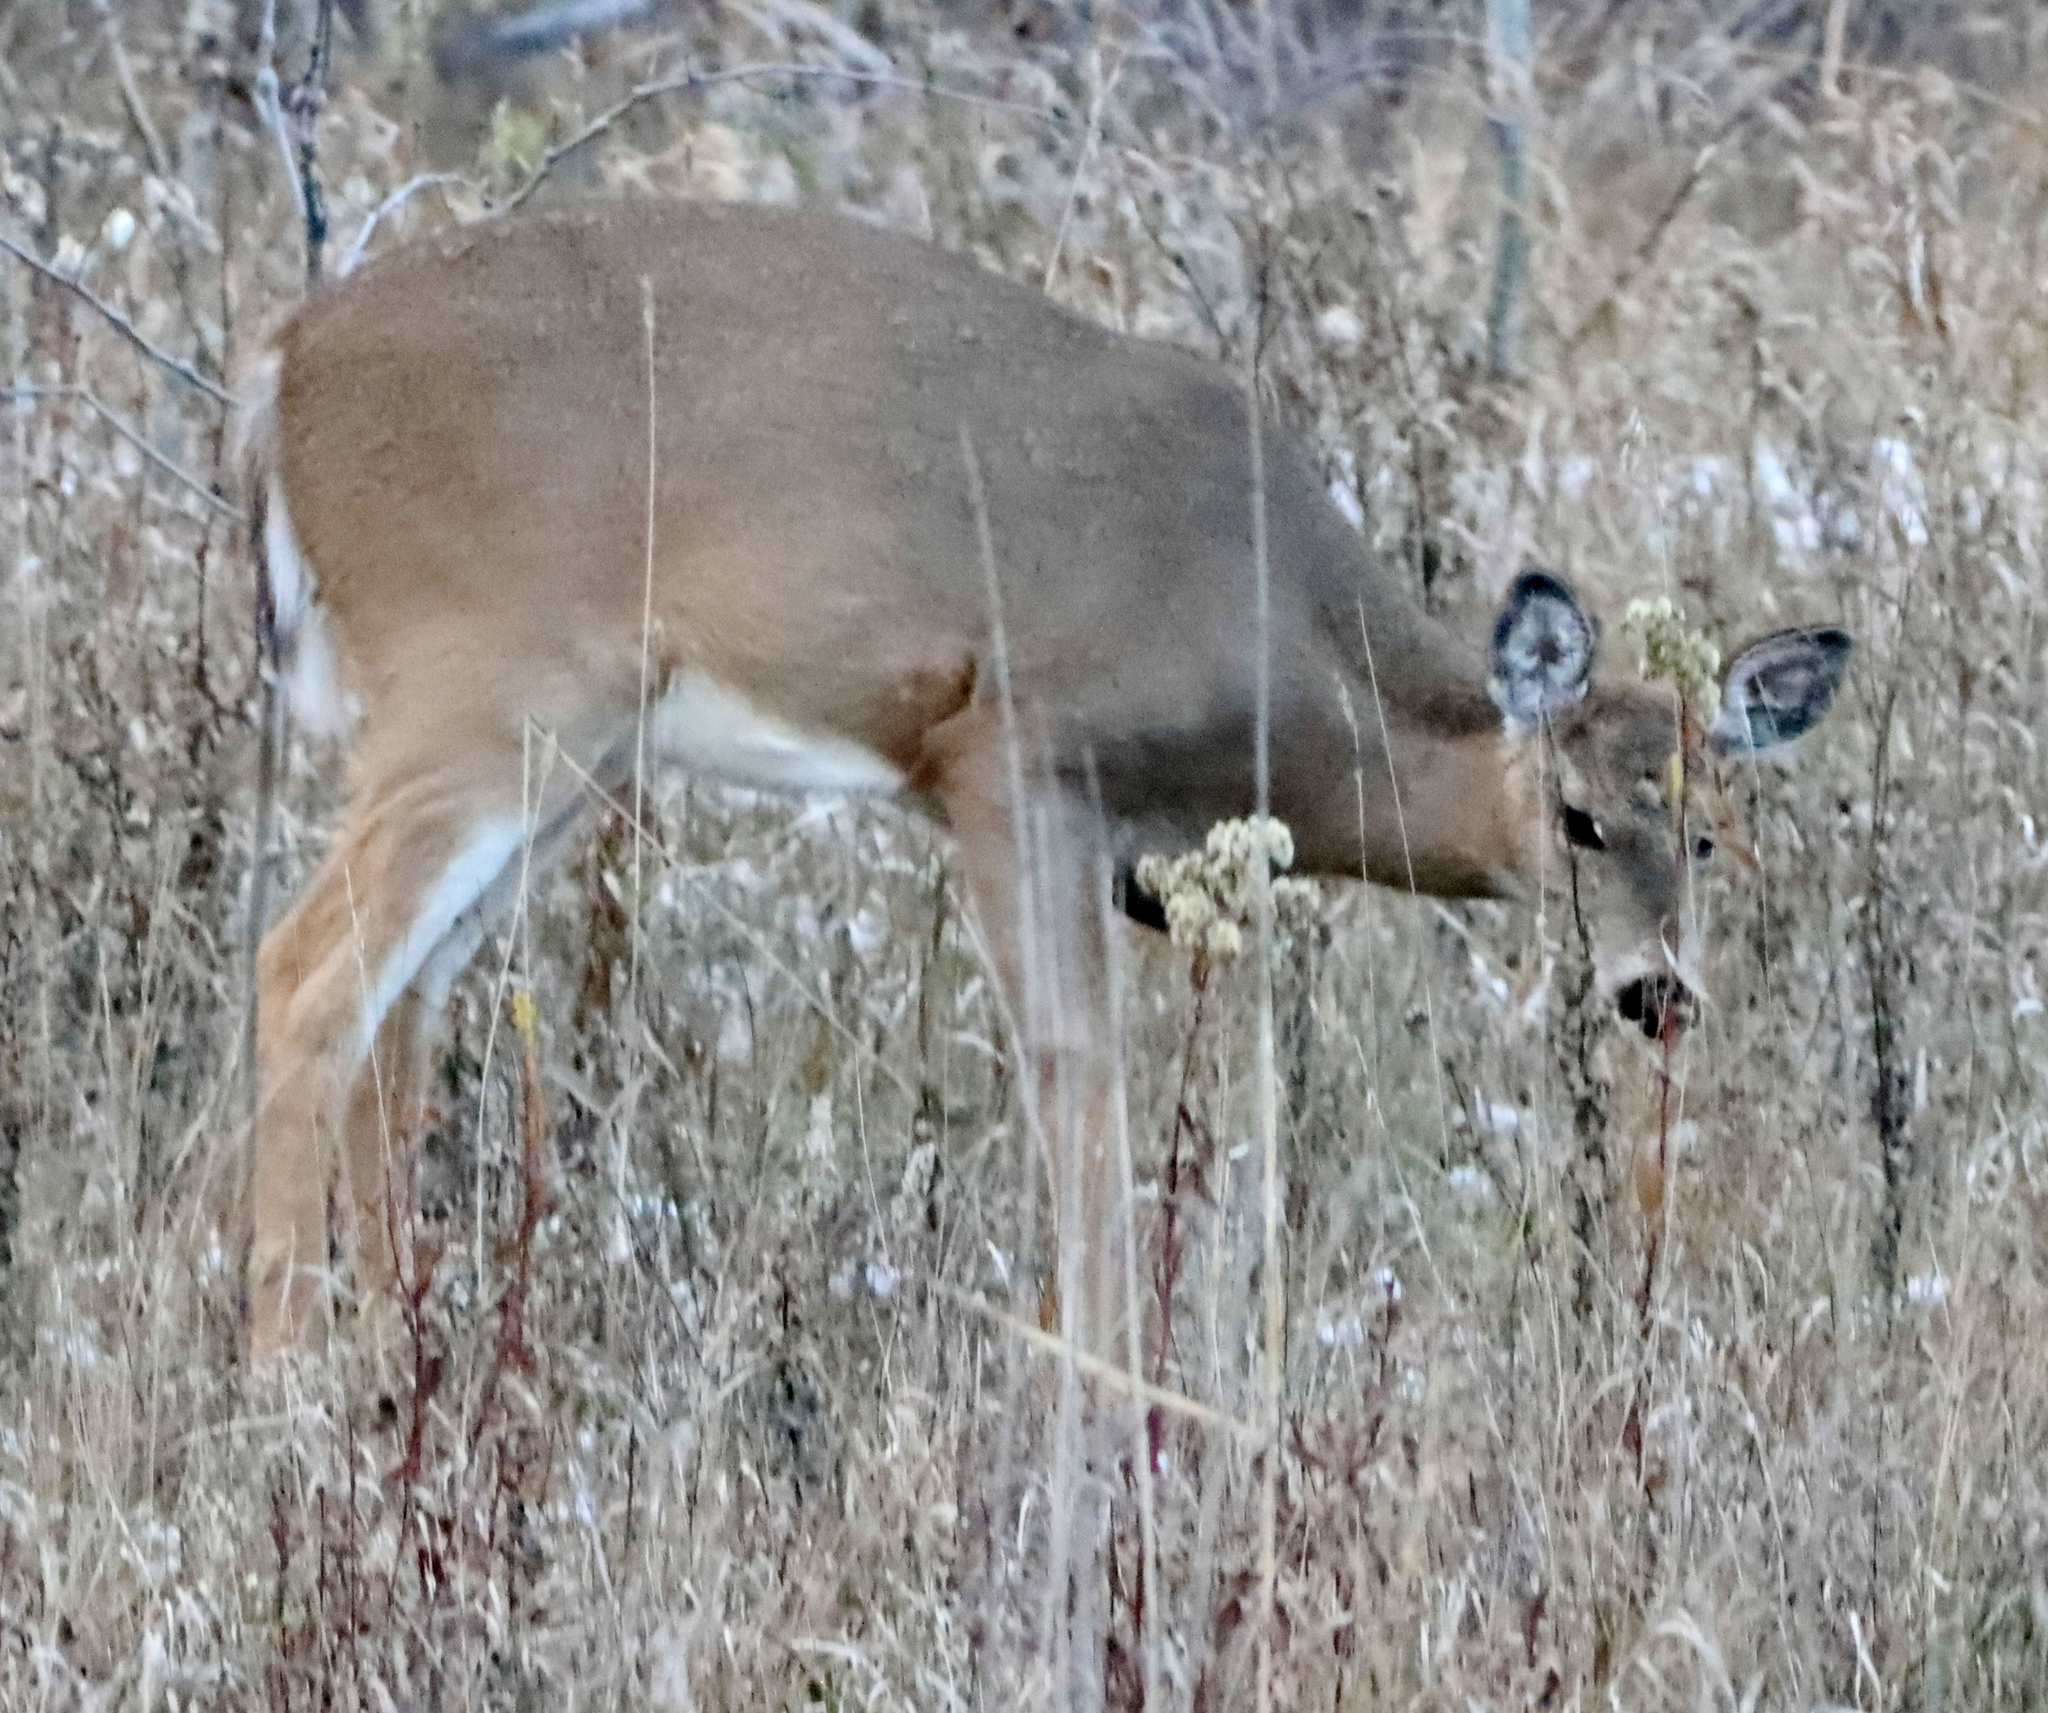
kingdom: Animalia
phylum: Chordata
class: Mammalia
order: Artiodactyla
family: Cervidae
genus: Odocoileus
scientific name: Odocoileus virginianus
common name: White-tailed deer
